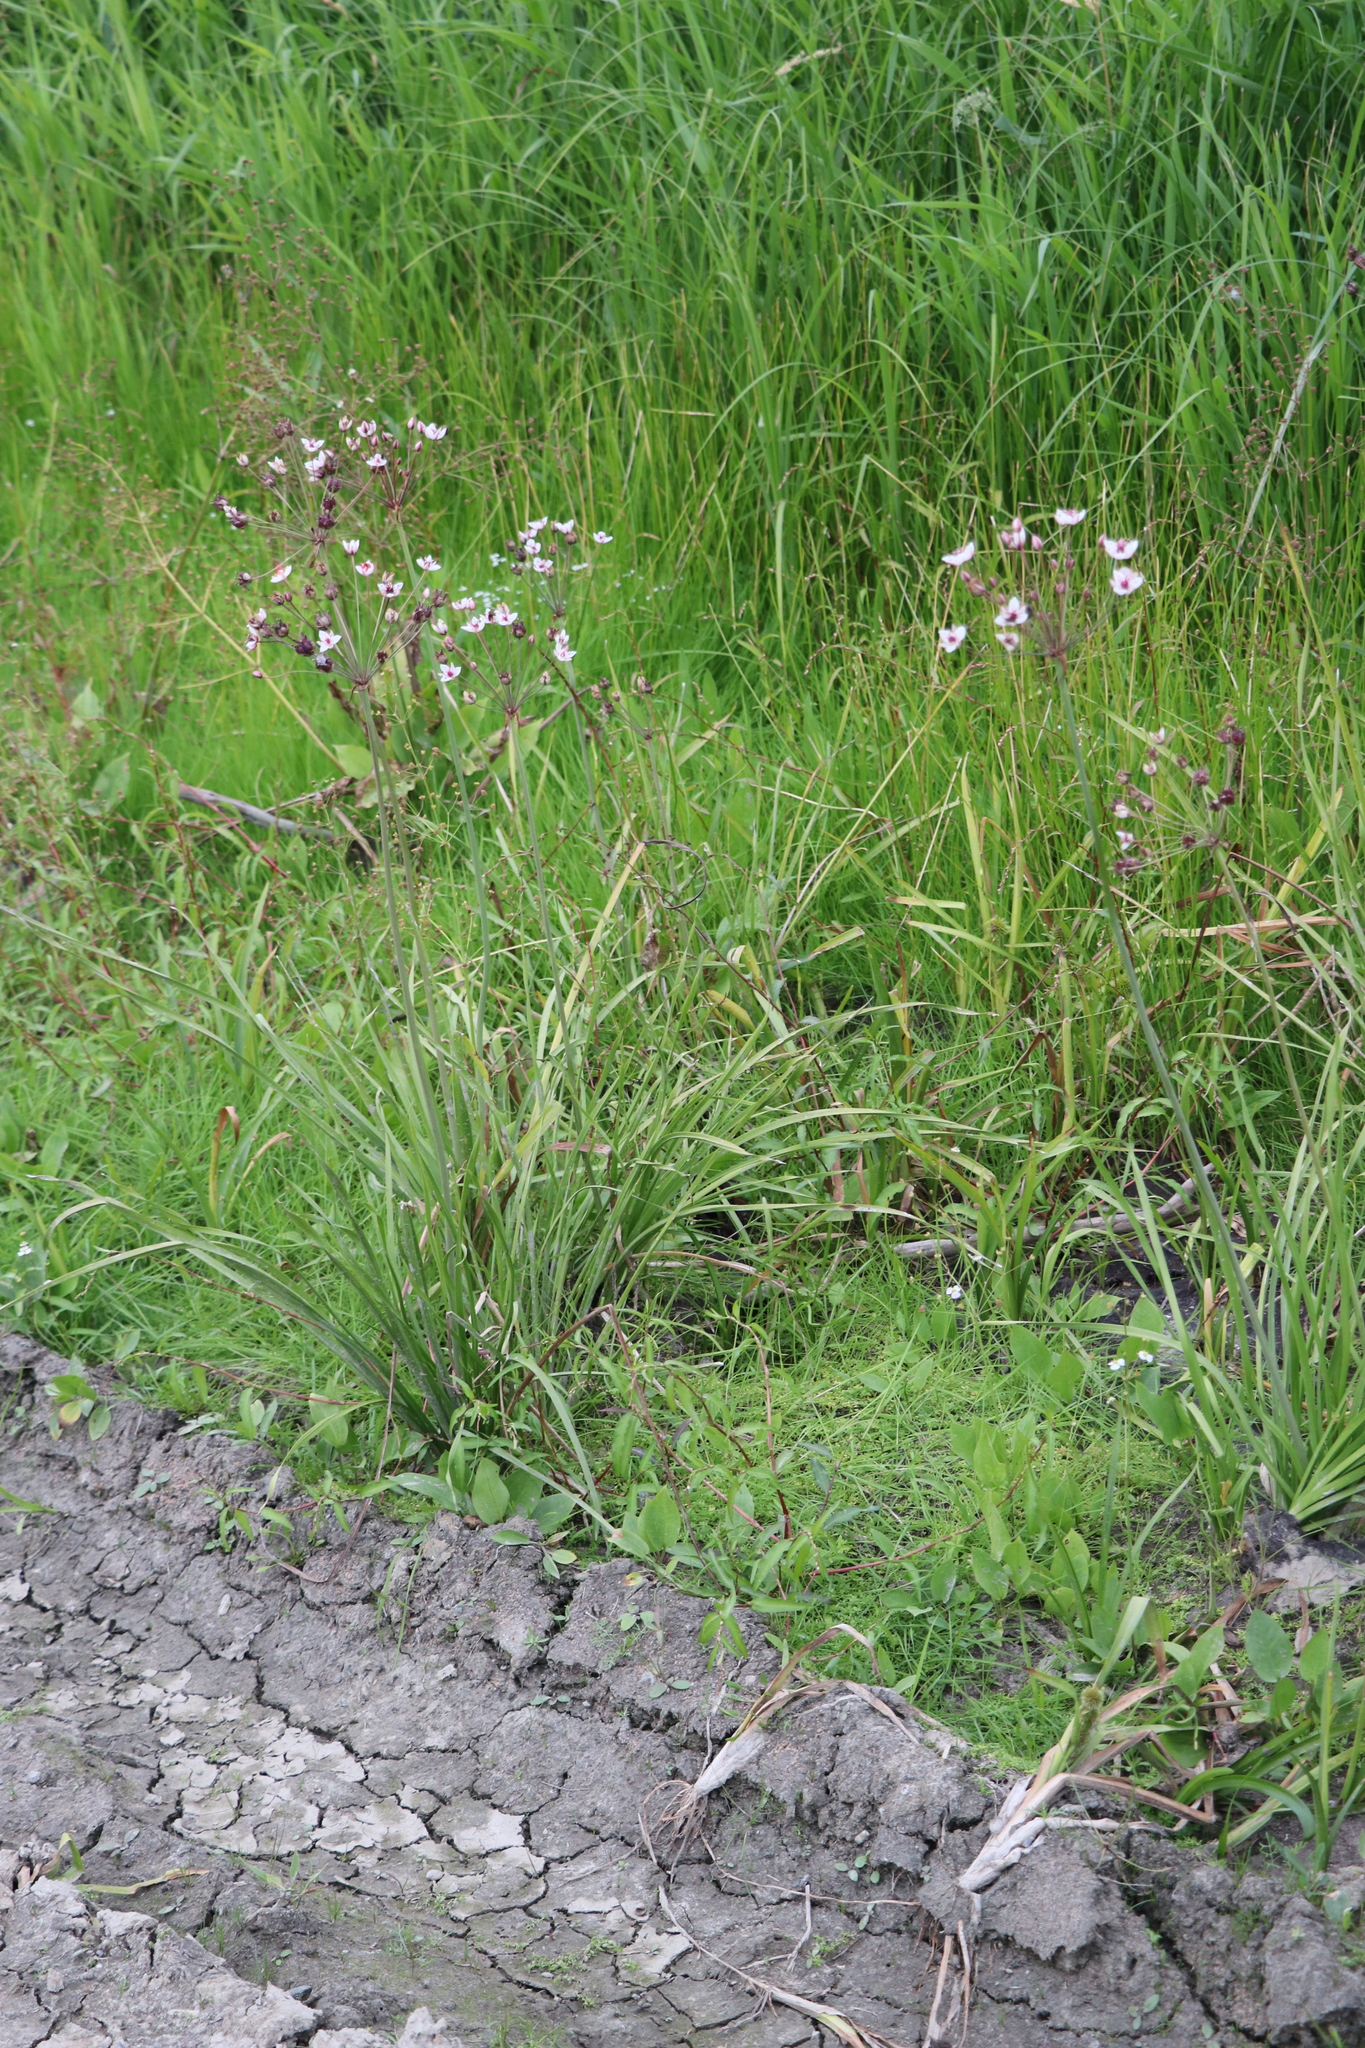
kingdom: Plantae
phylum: Tracheophyta
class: Liliopsida
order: Alismatales
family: Butomaceae
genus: Butomus
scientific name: Butomus umbellatus
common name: Flowering-rush
